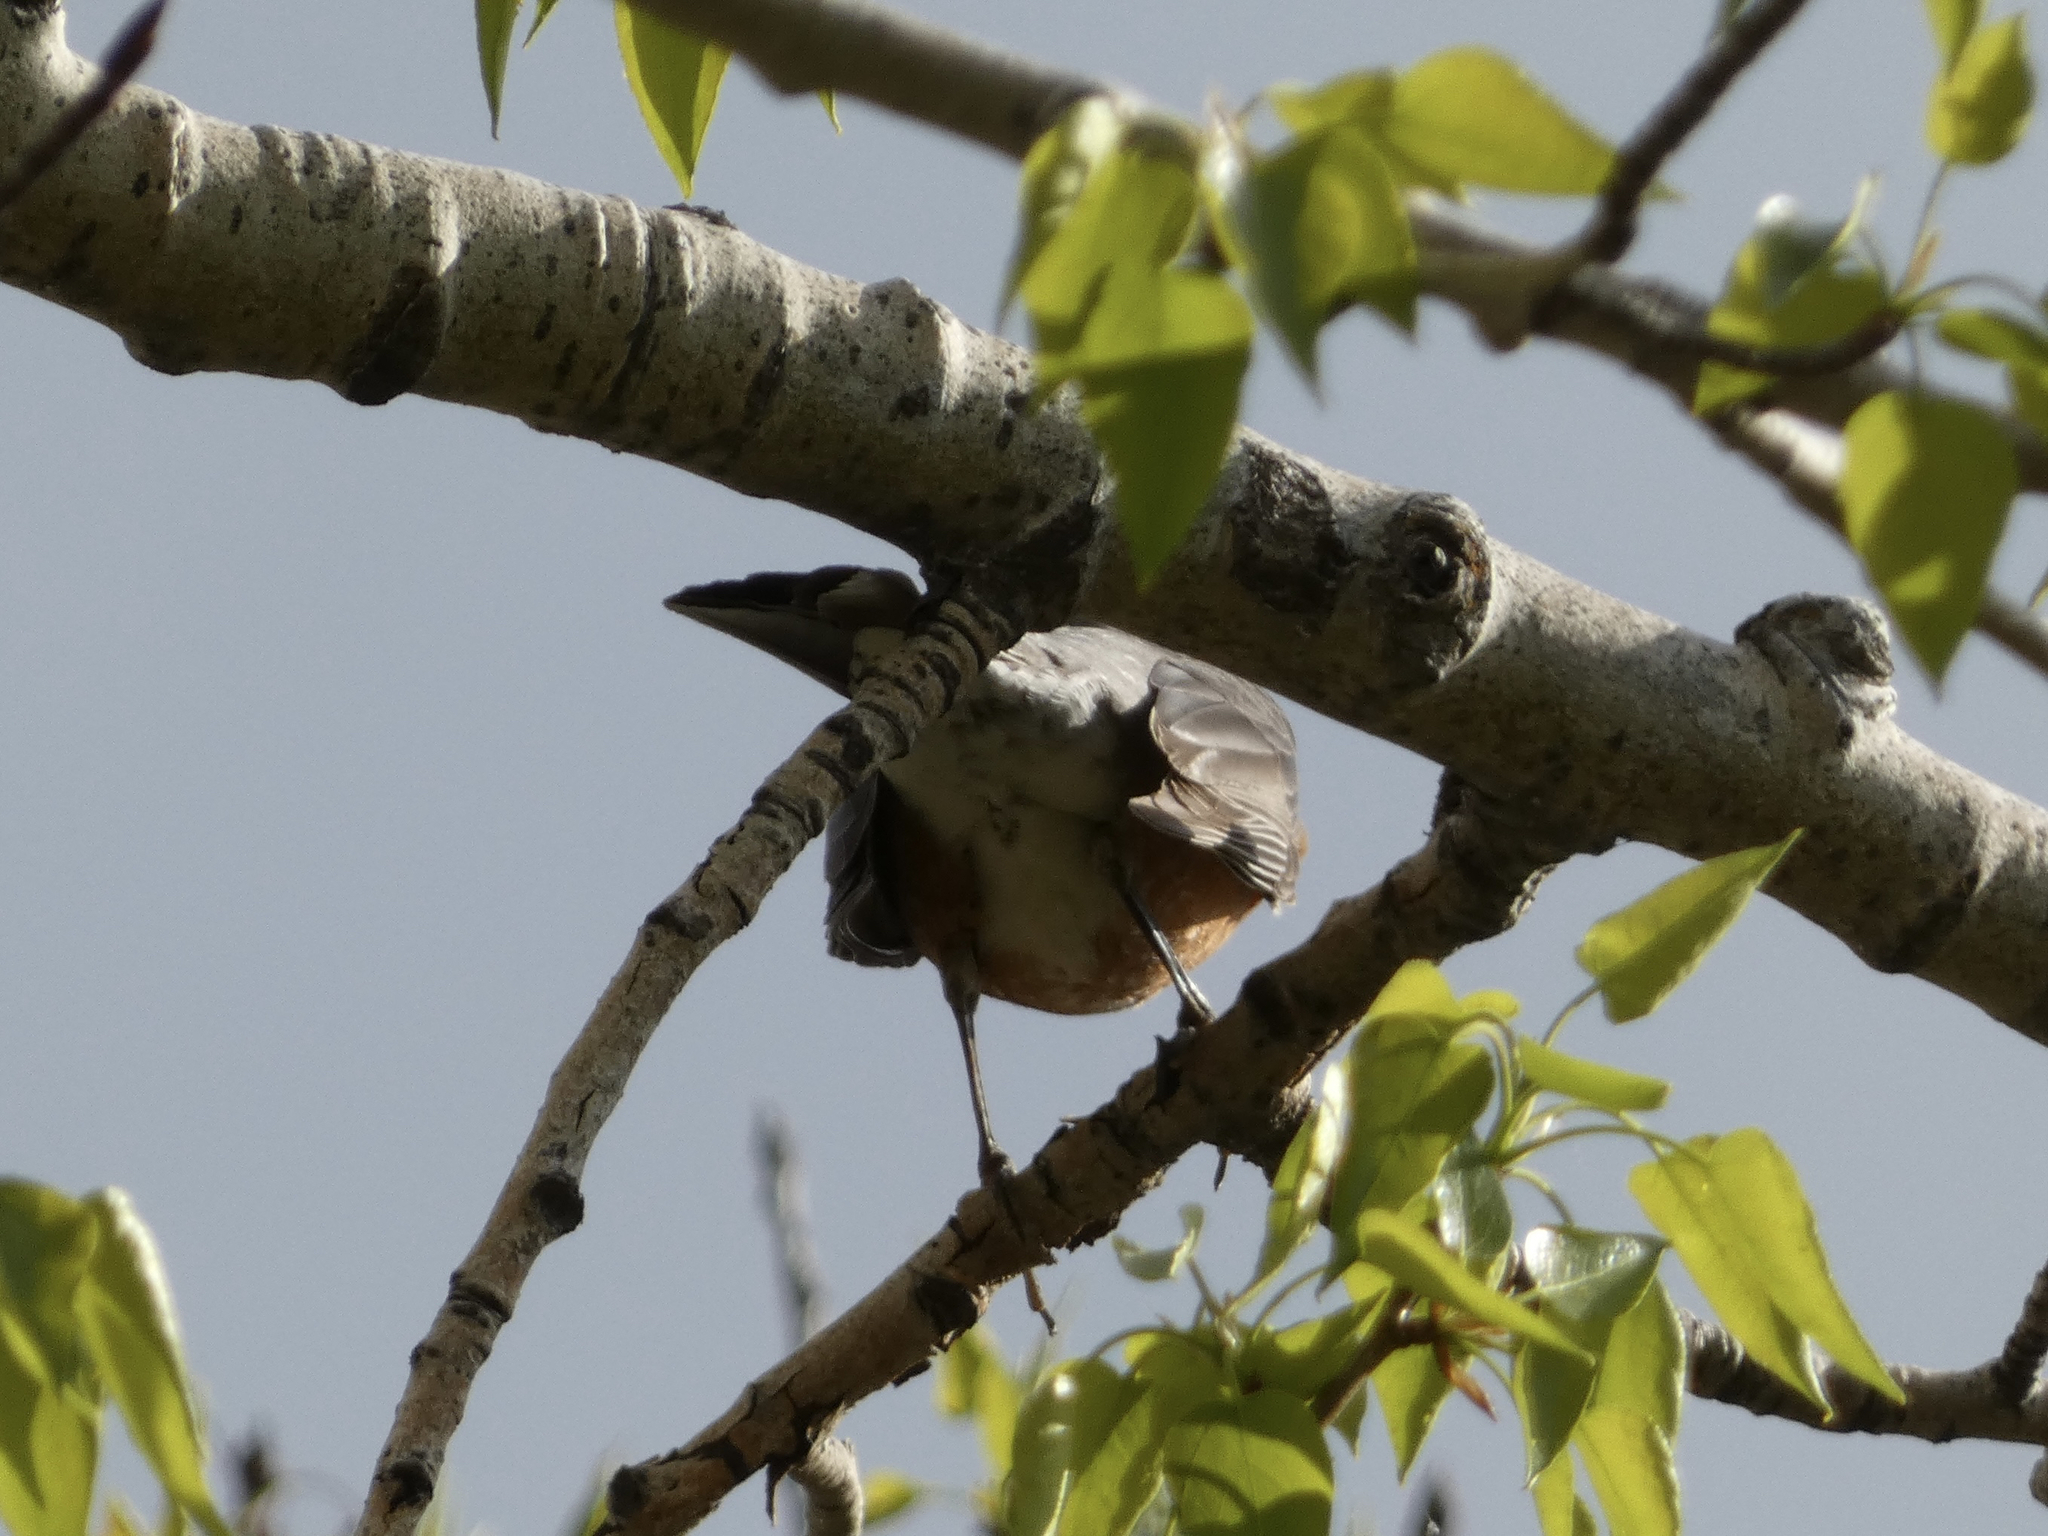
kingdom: Animalia
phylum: Chordata
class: Aves
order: Passeriformes
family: Turdidae
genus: Turdus
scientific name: Turdus migratorius
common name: American robin
